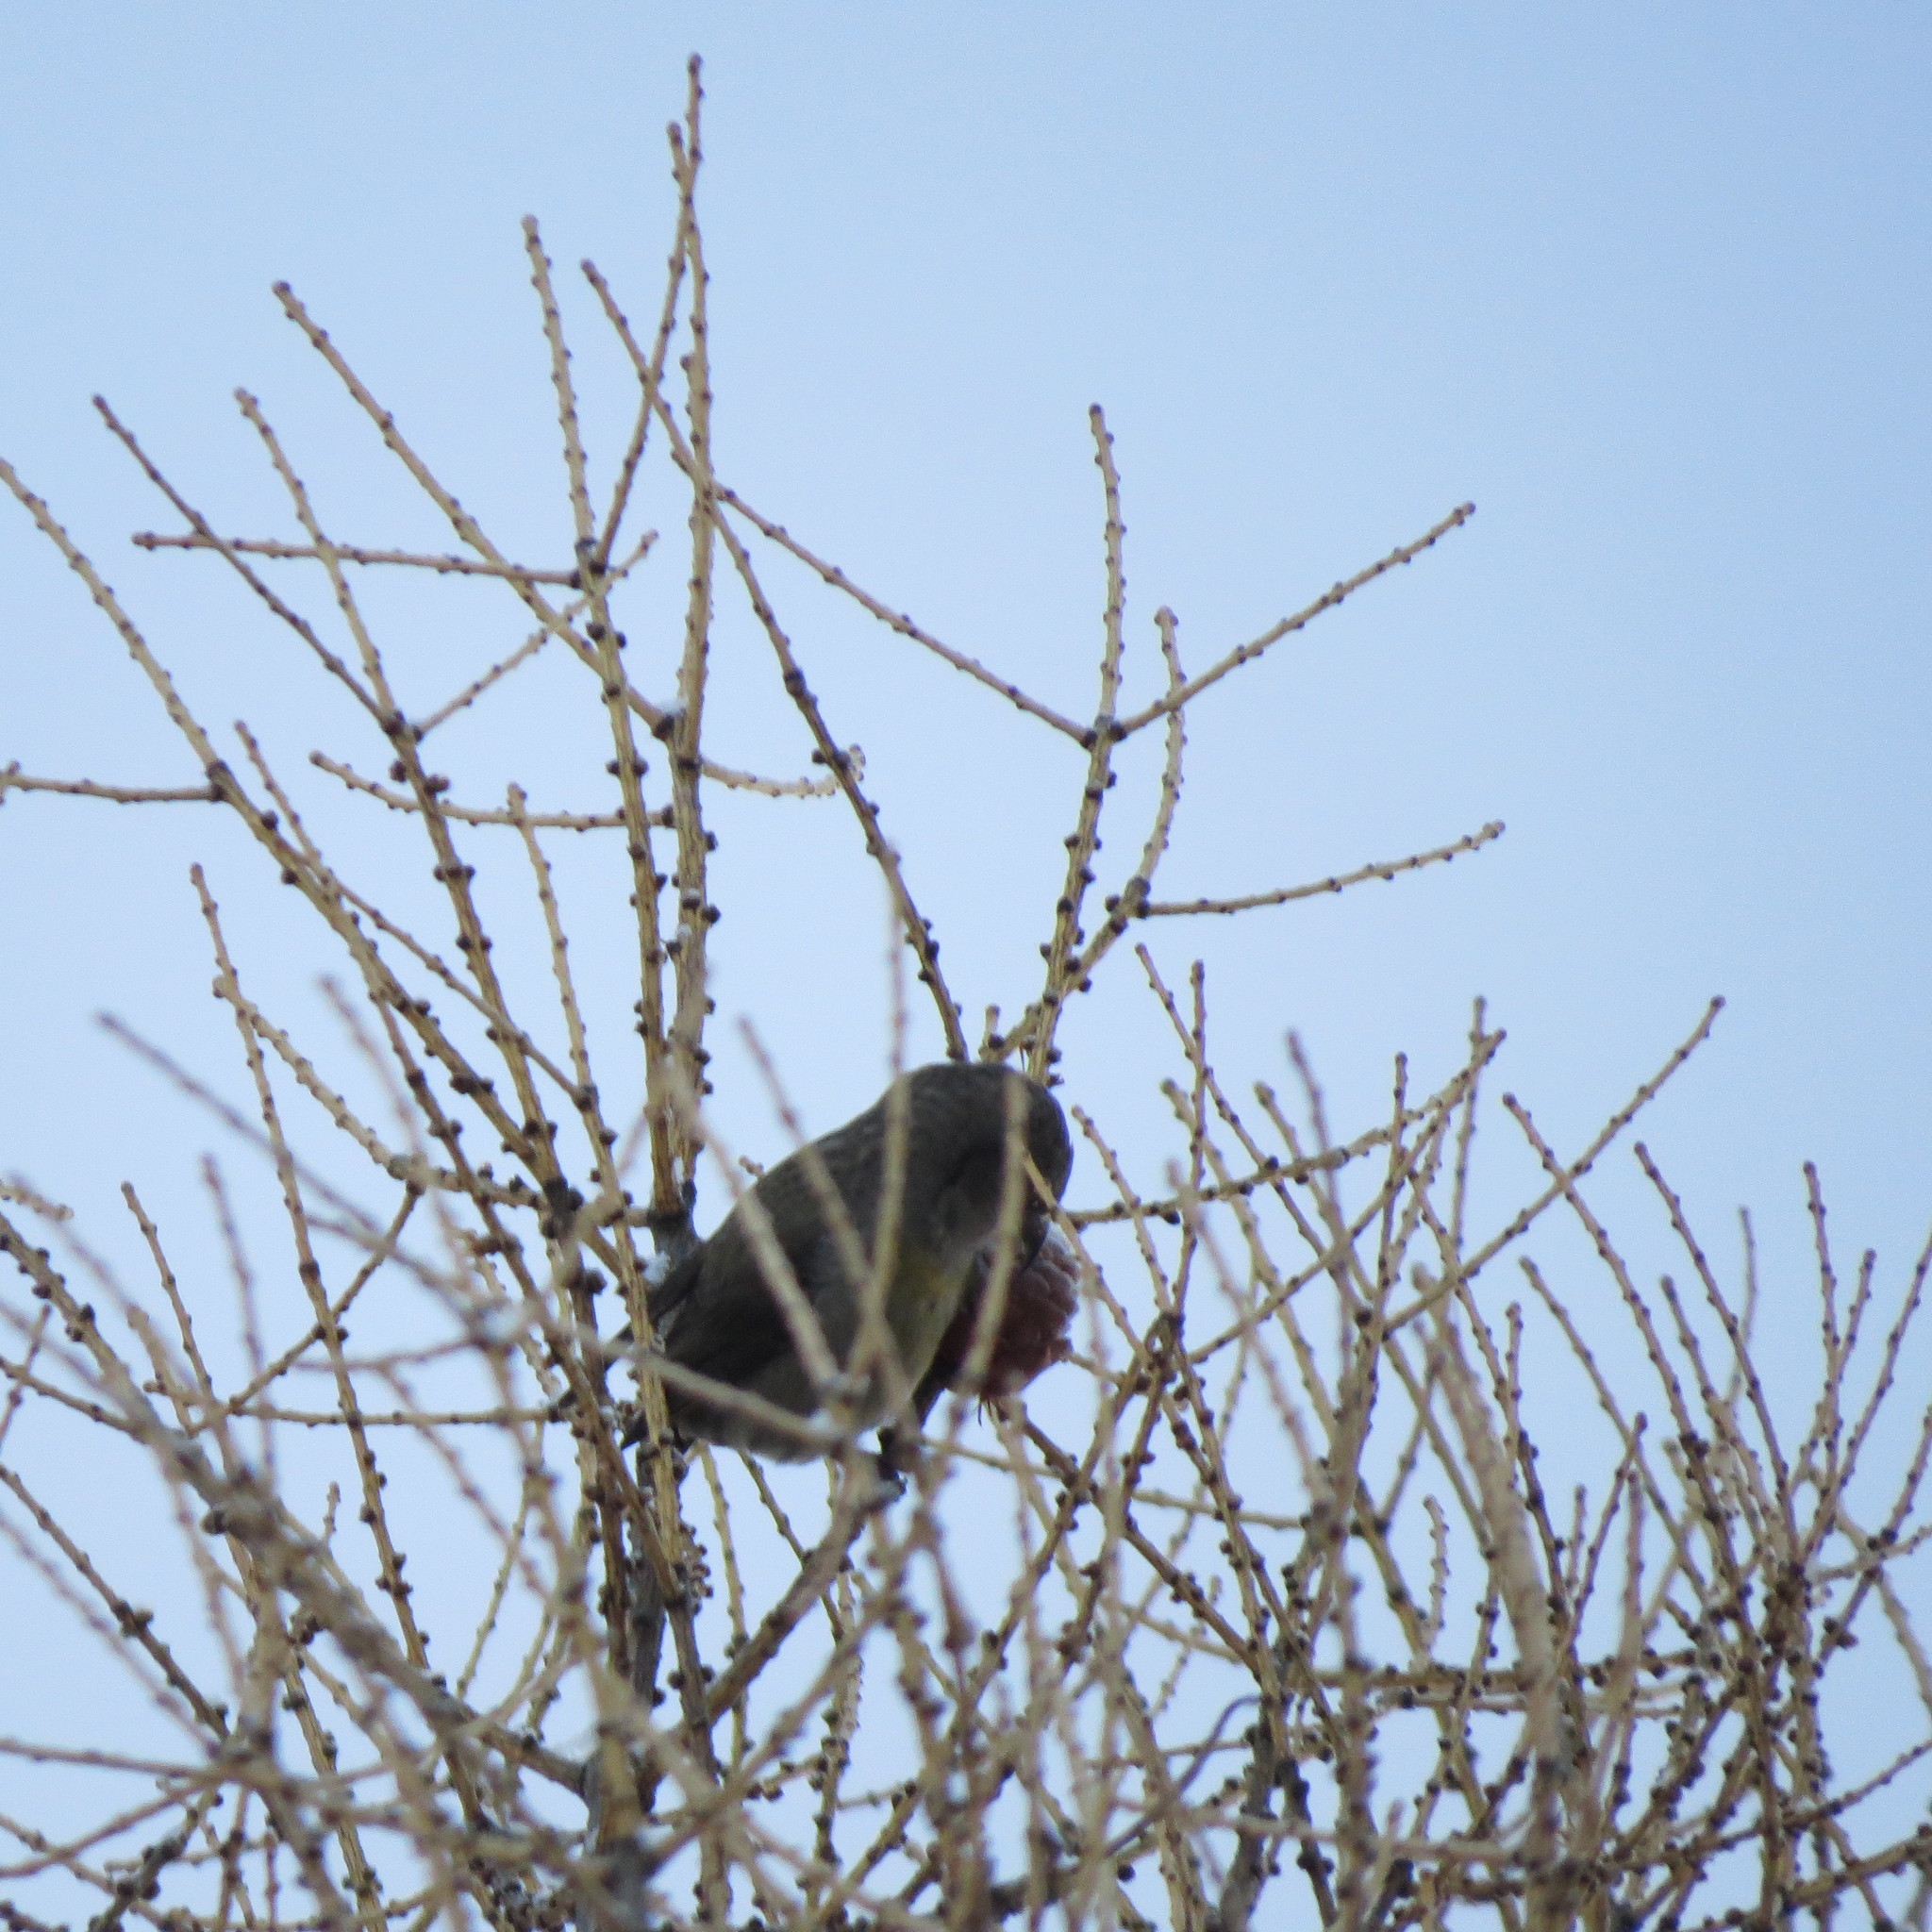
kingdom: Animalia
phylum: Chordata
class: Aves
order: Passeriformes
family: Fringillidae
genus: Loxia
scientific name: Loxia curvirostra
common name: Red crossbill
